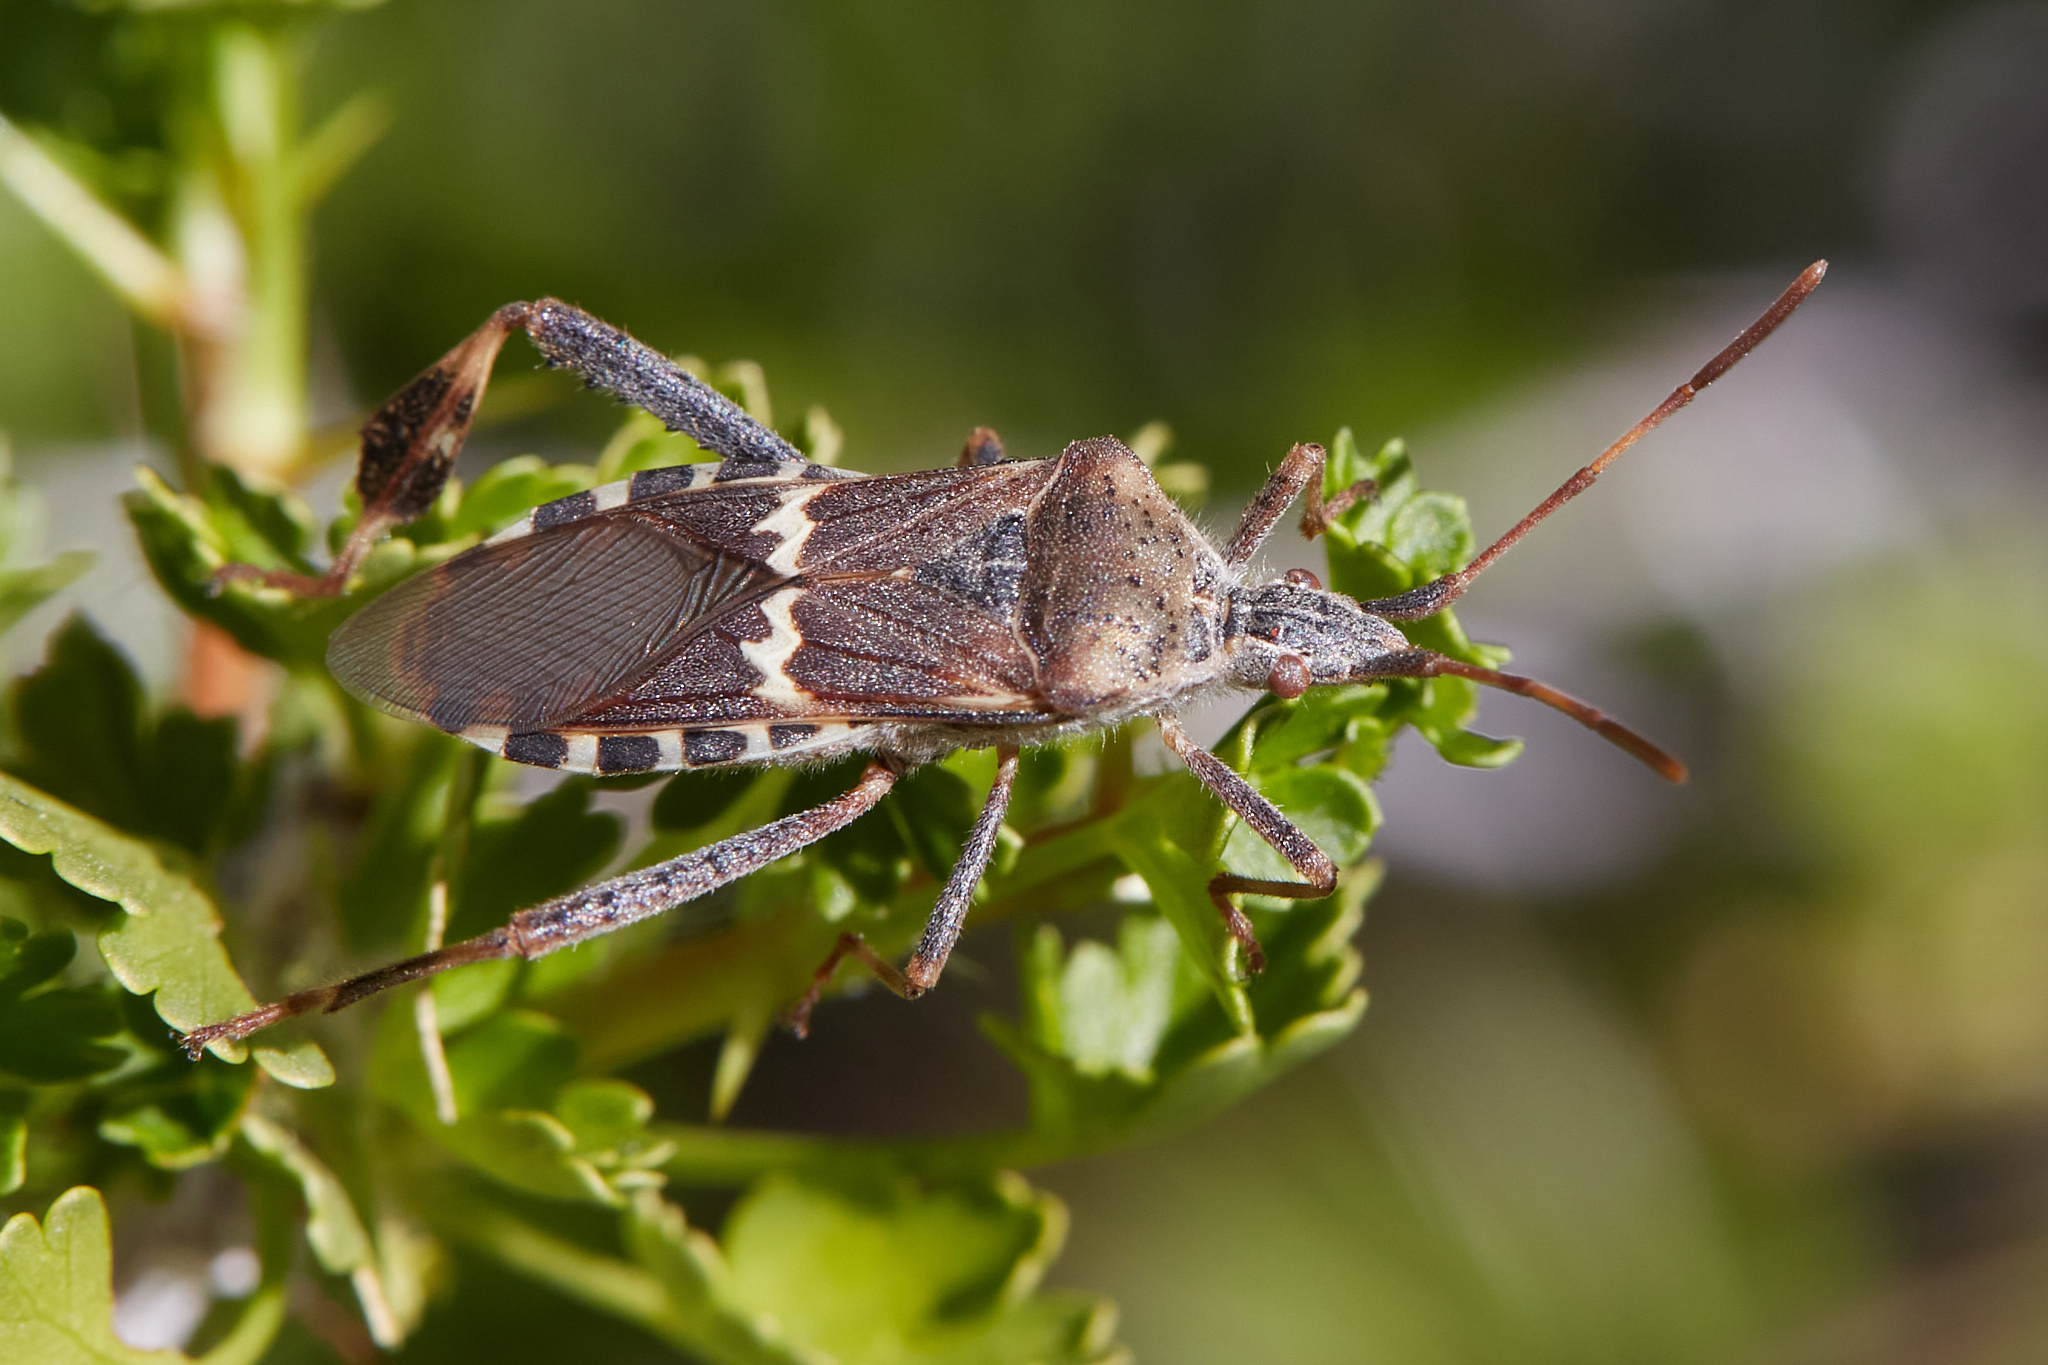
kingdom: Animalia
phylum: Arthropoda
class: Insecta
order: Hemiptera
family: Coreidae
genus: Leptoglossus
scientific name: Leptoglossus clypealis
